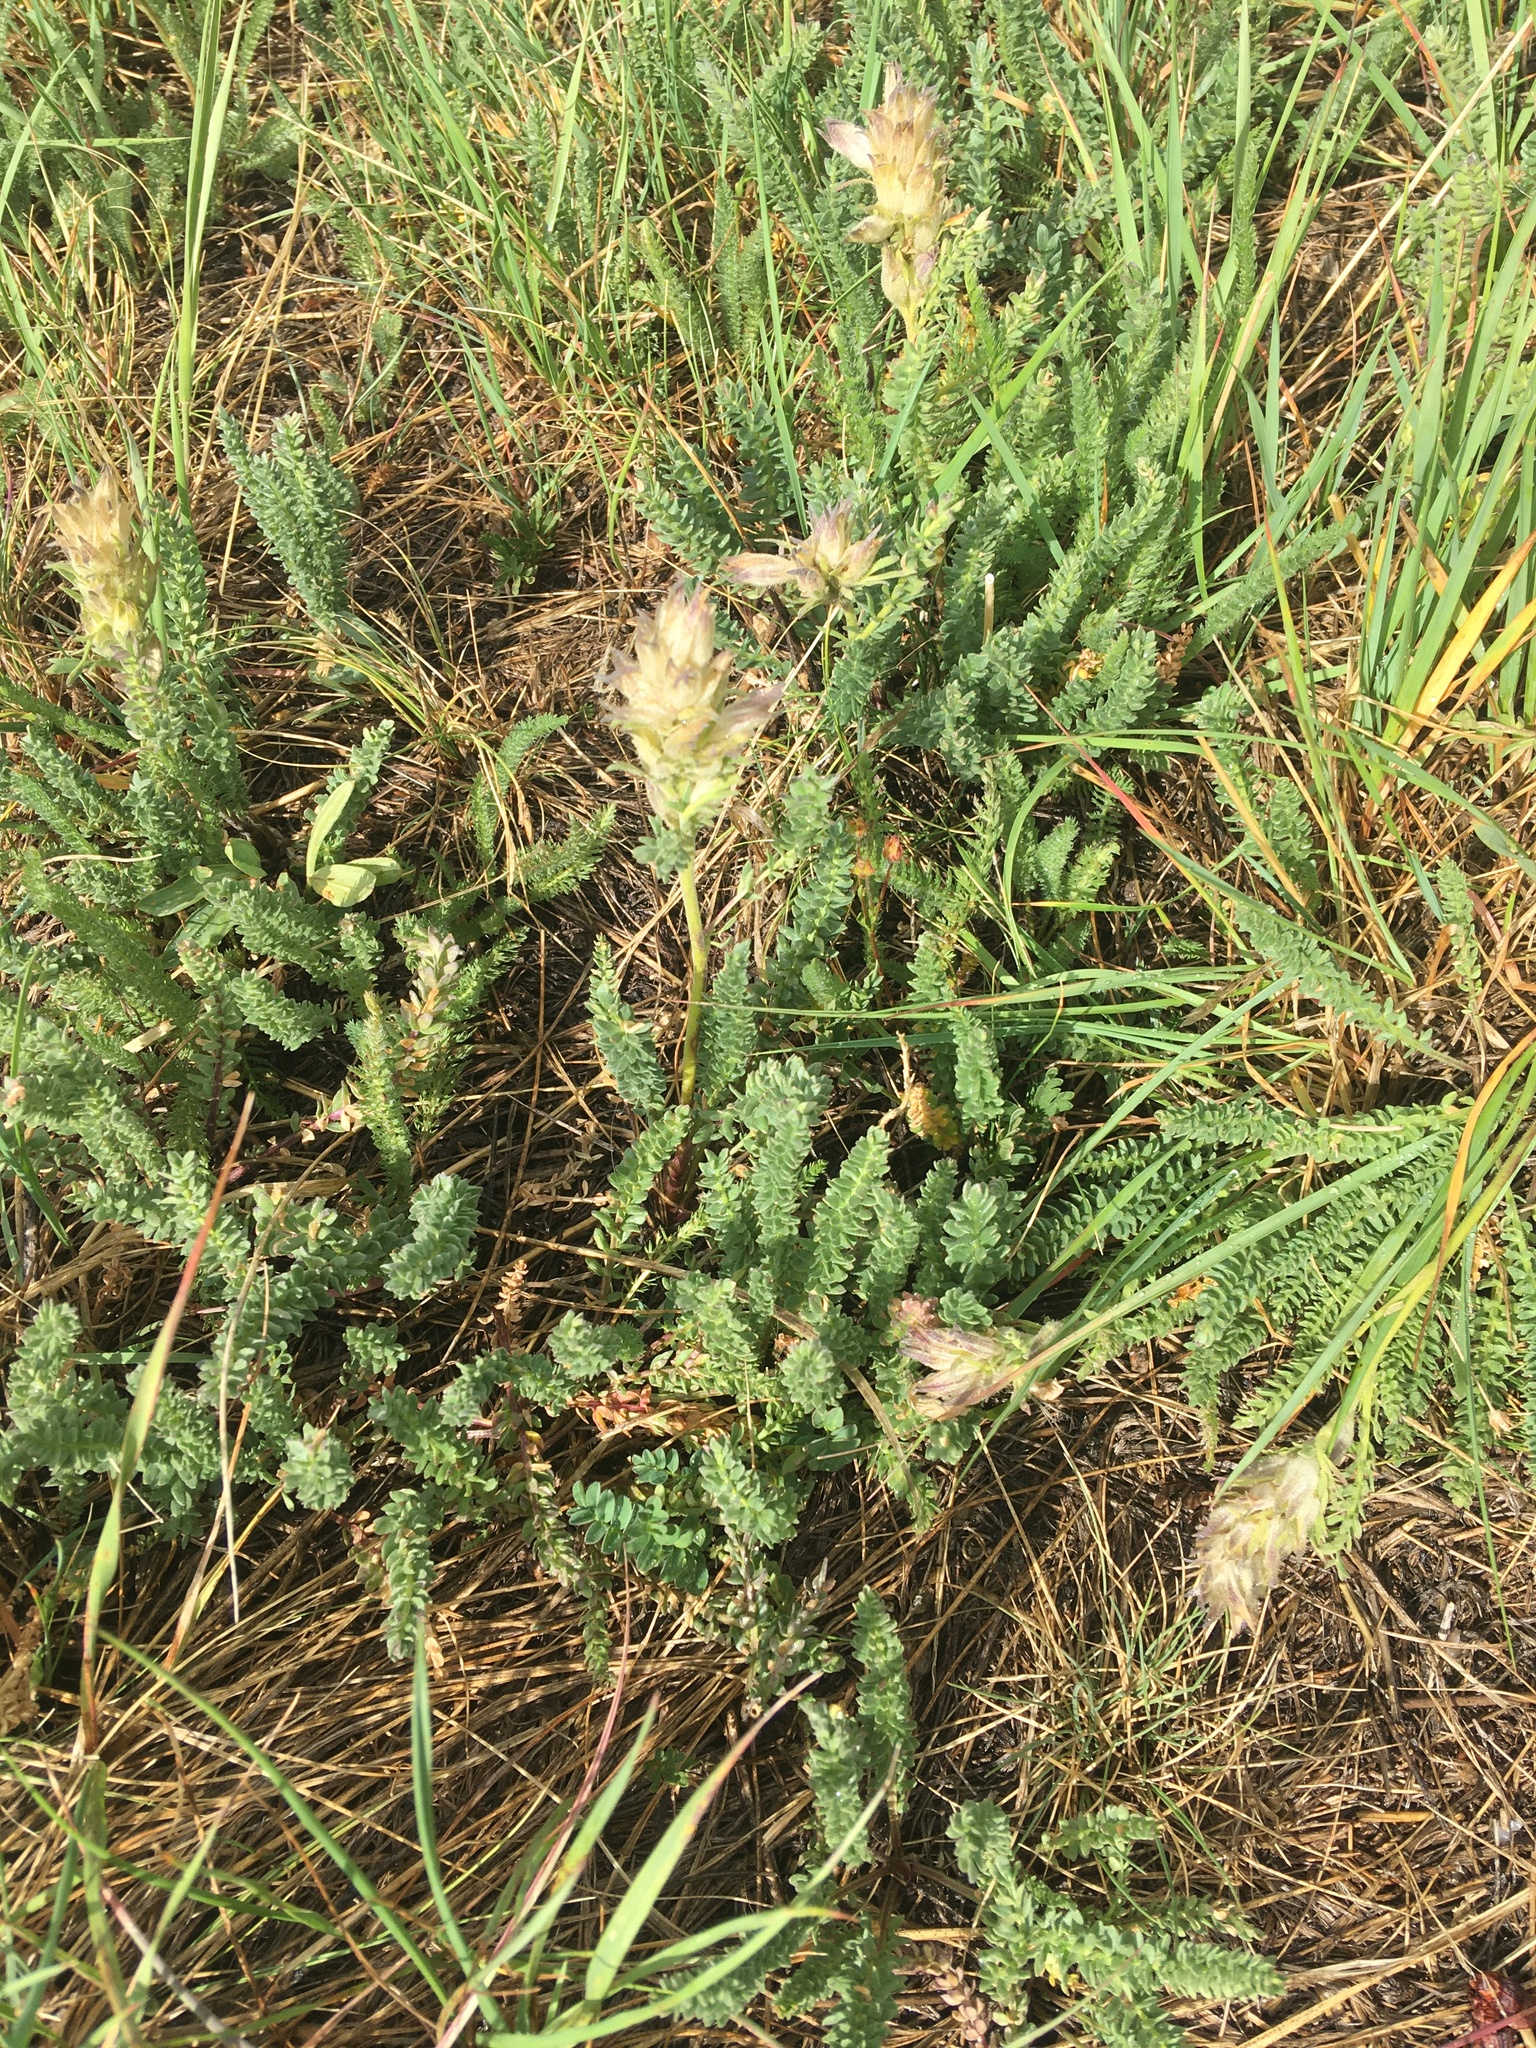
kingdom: Plantae
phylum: Tracheophyta
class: Magnoliopsida
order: Ericales
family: Polemoniaceae
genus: Polemonium
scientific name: Polemonium viscosum
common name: Skunk jacob's-ladder
